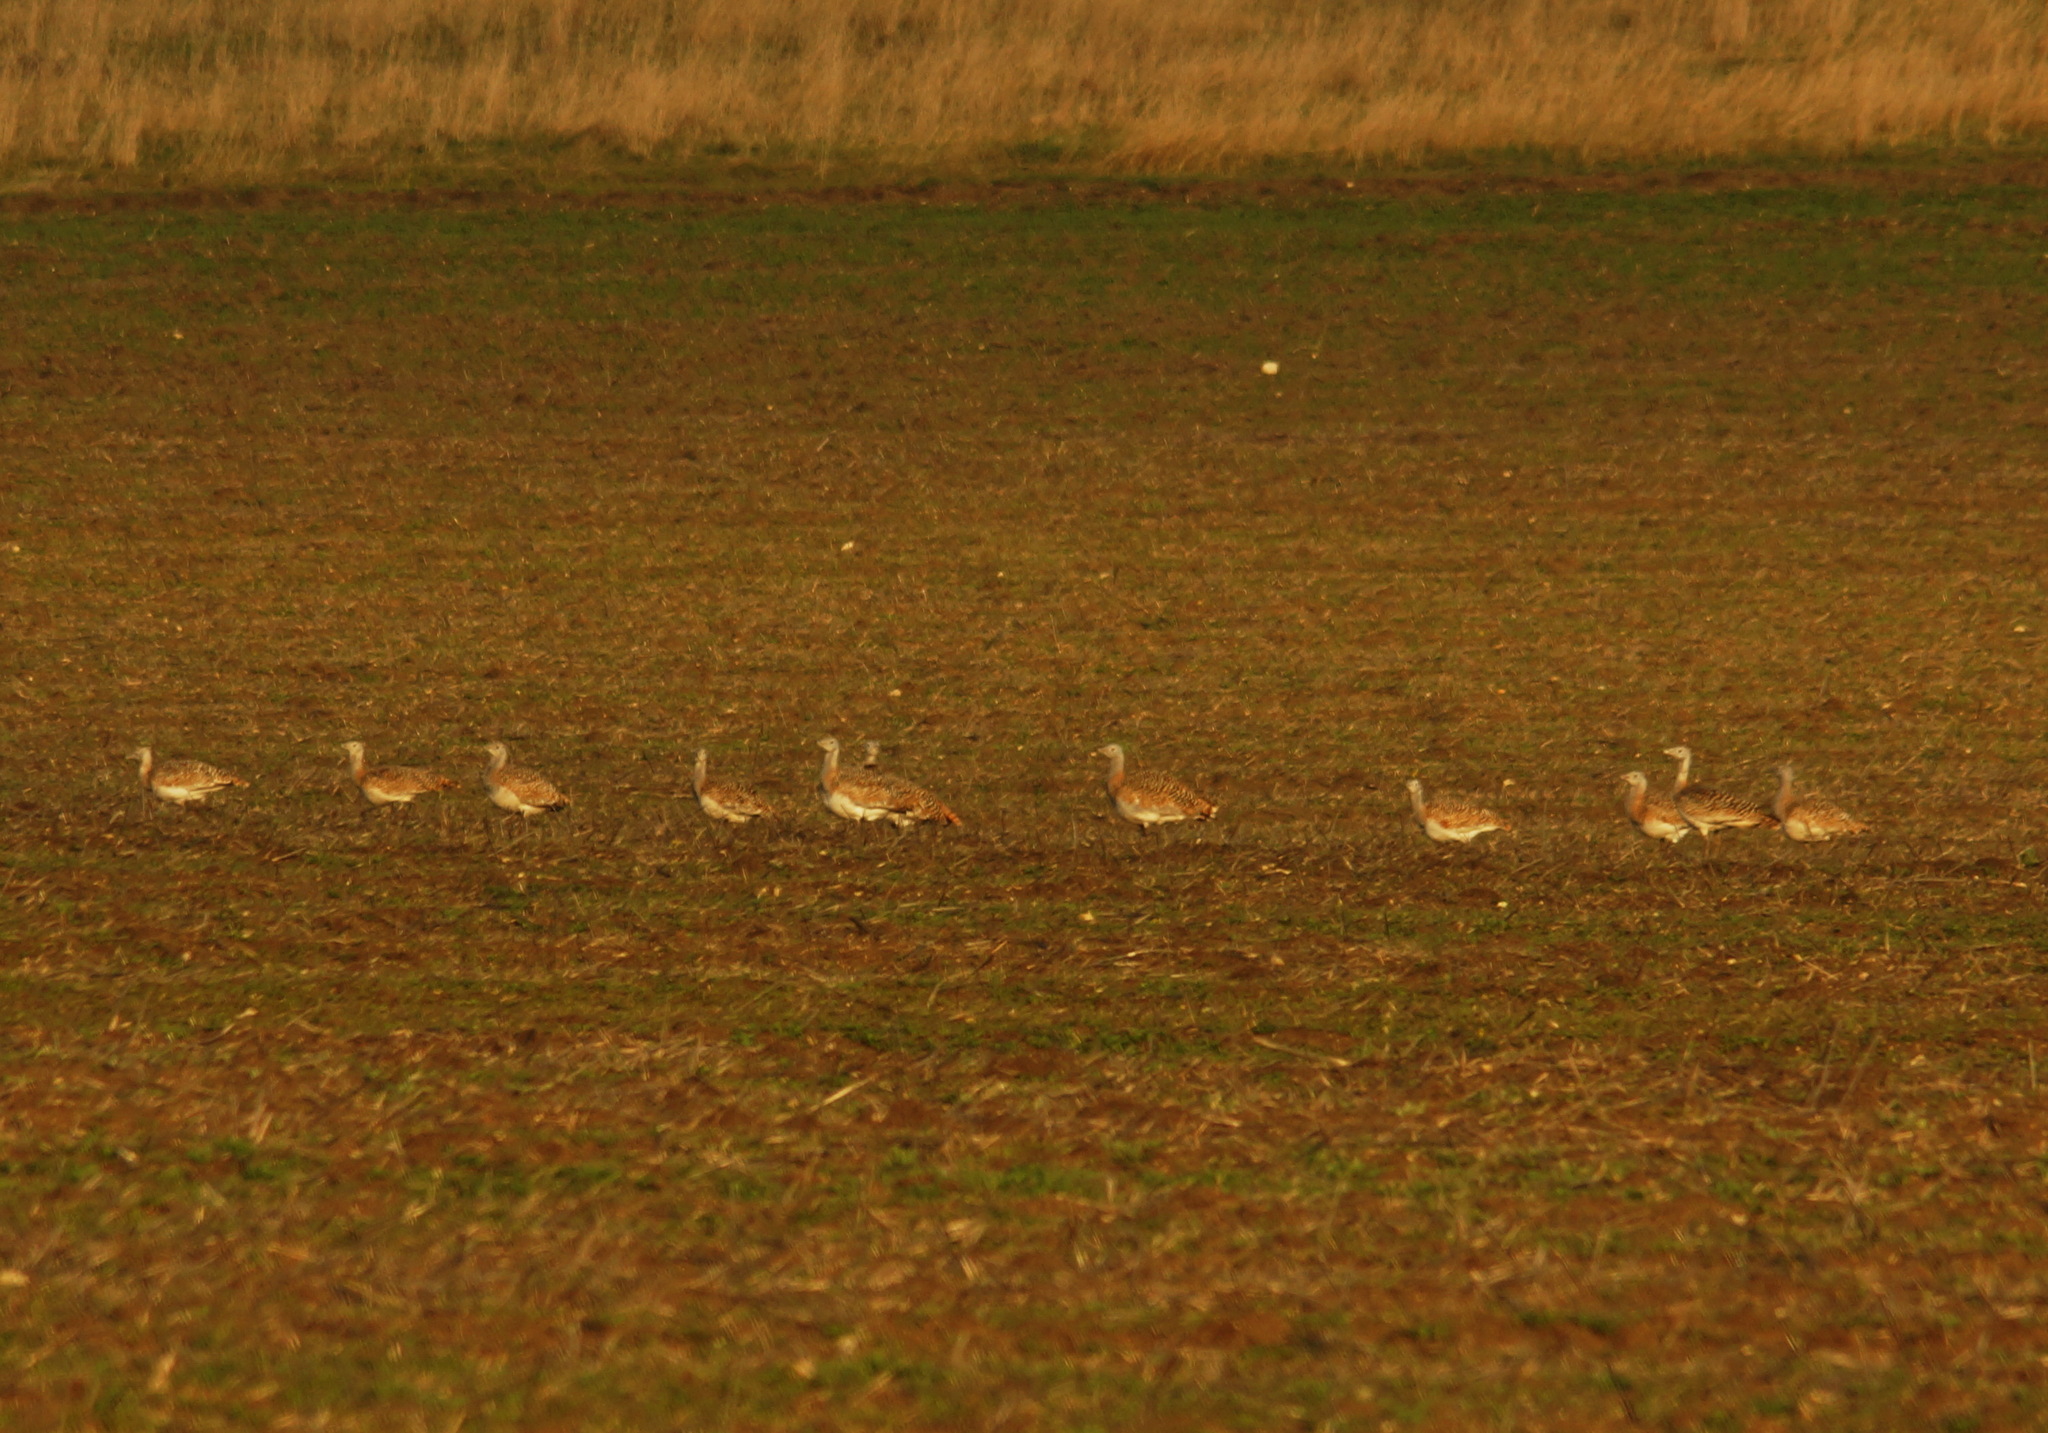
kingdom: Animalia
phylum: Chordata
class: Aves
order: Otidiformes
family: Otididae
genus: Otis
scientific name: Otis tarda
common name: Great bustard
